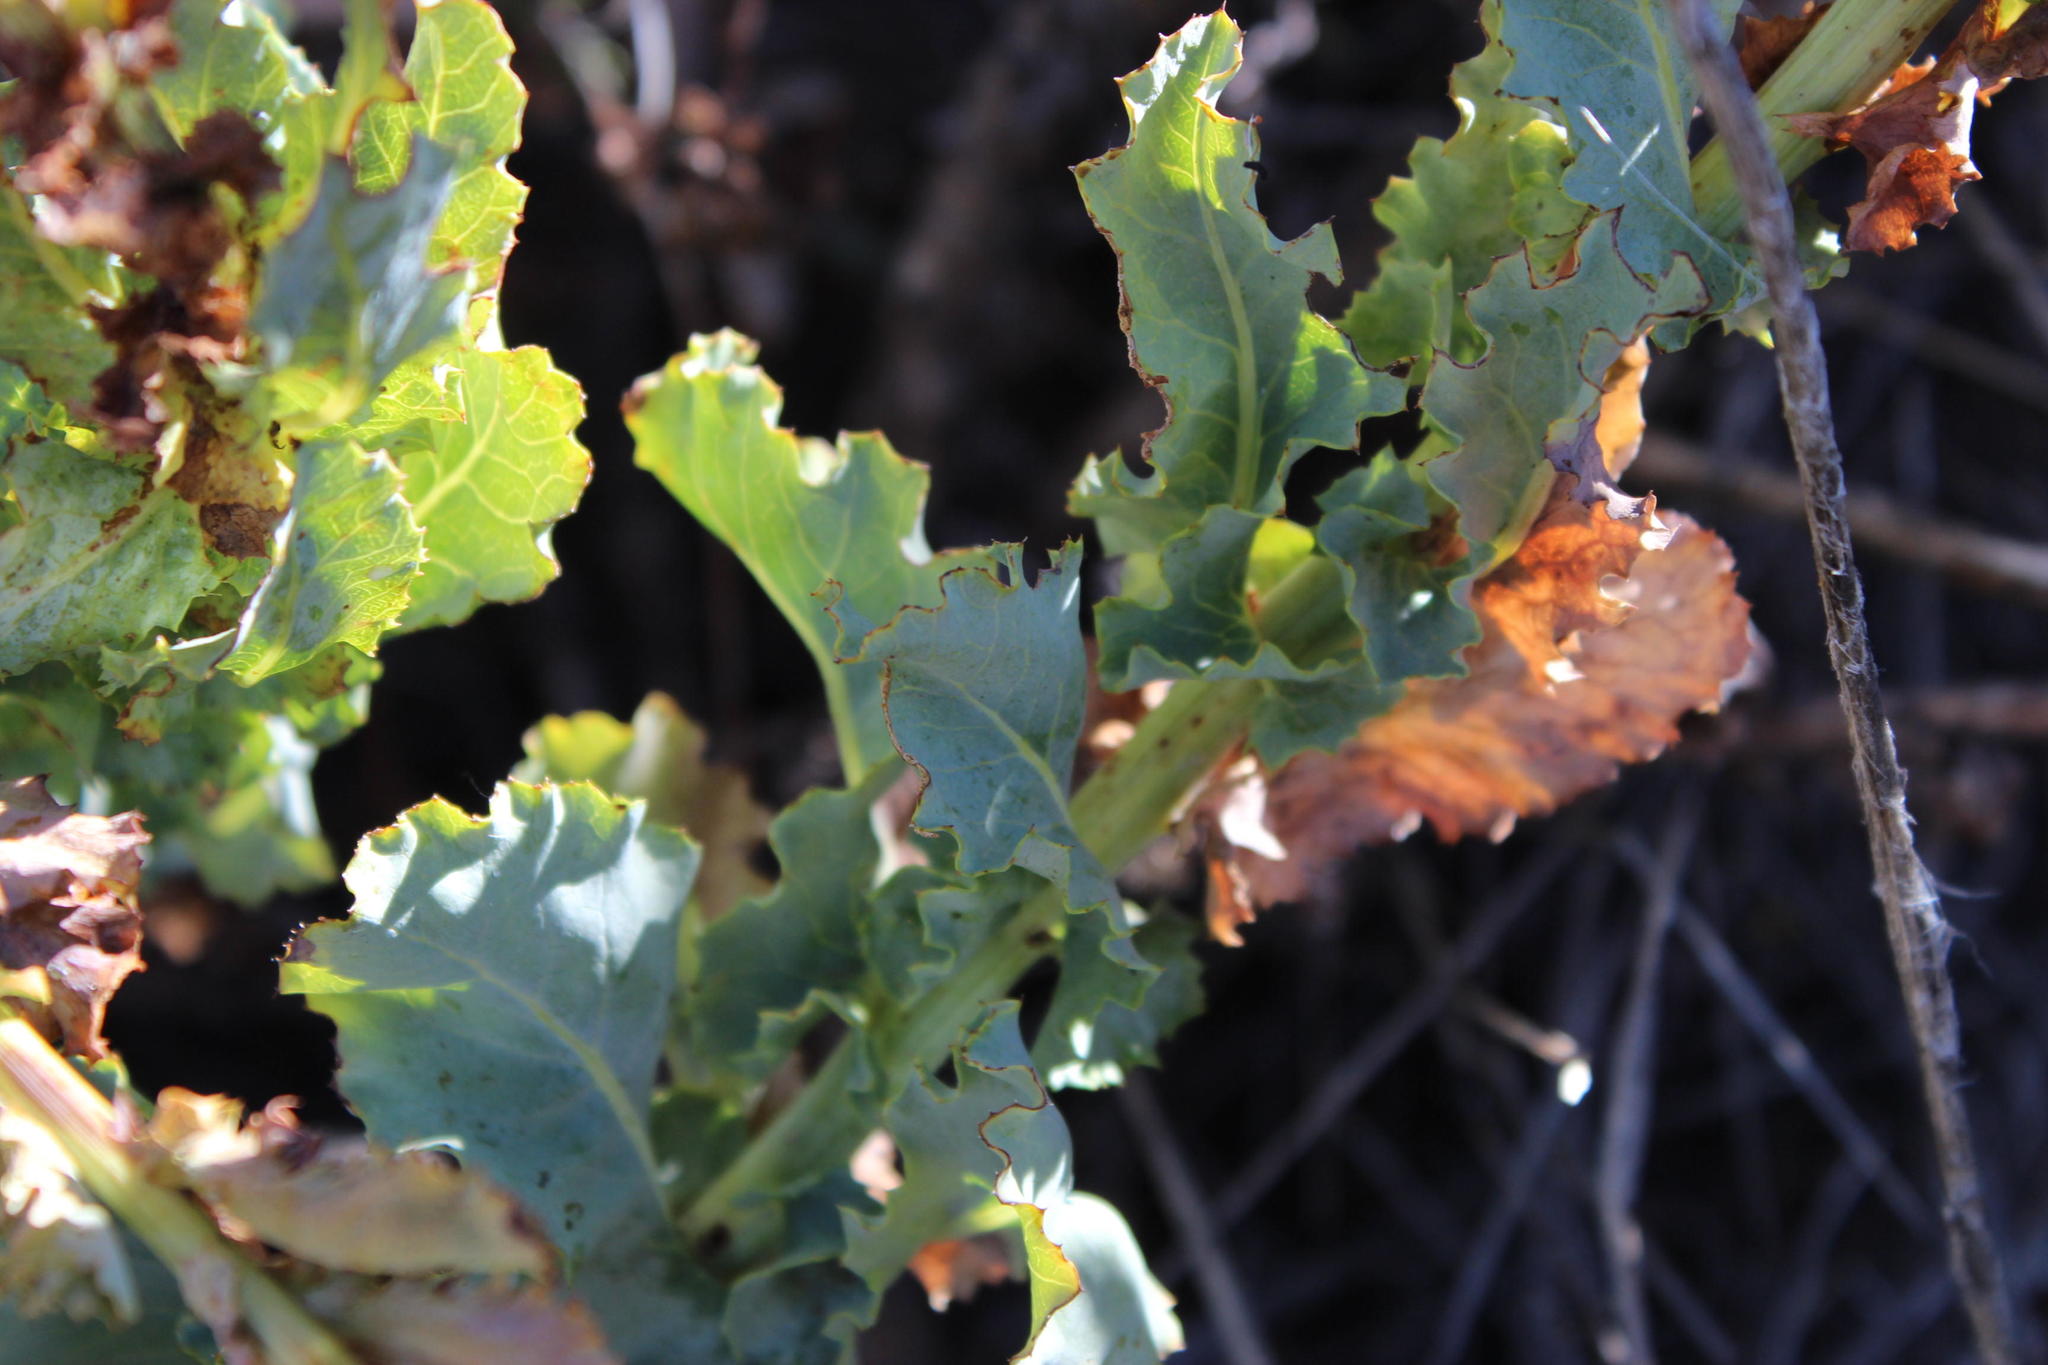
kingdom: Plantae
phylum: Tracheophyta
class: Magnoliopsida
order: Asterales
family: Asteraceae
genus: Senecio
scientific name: Senecio vestitus
